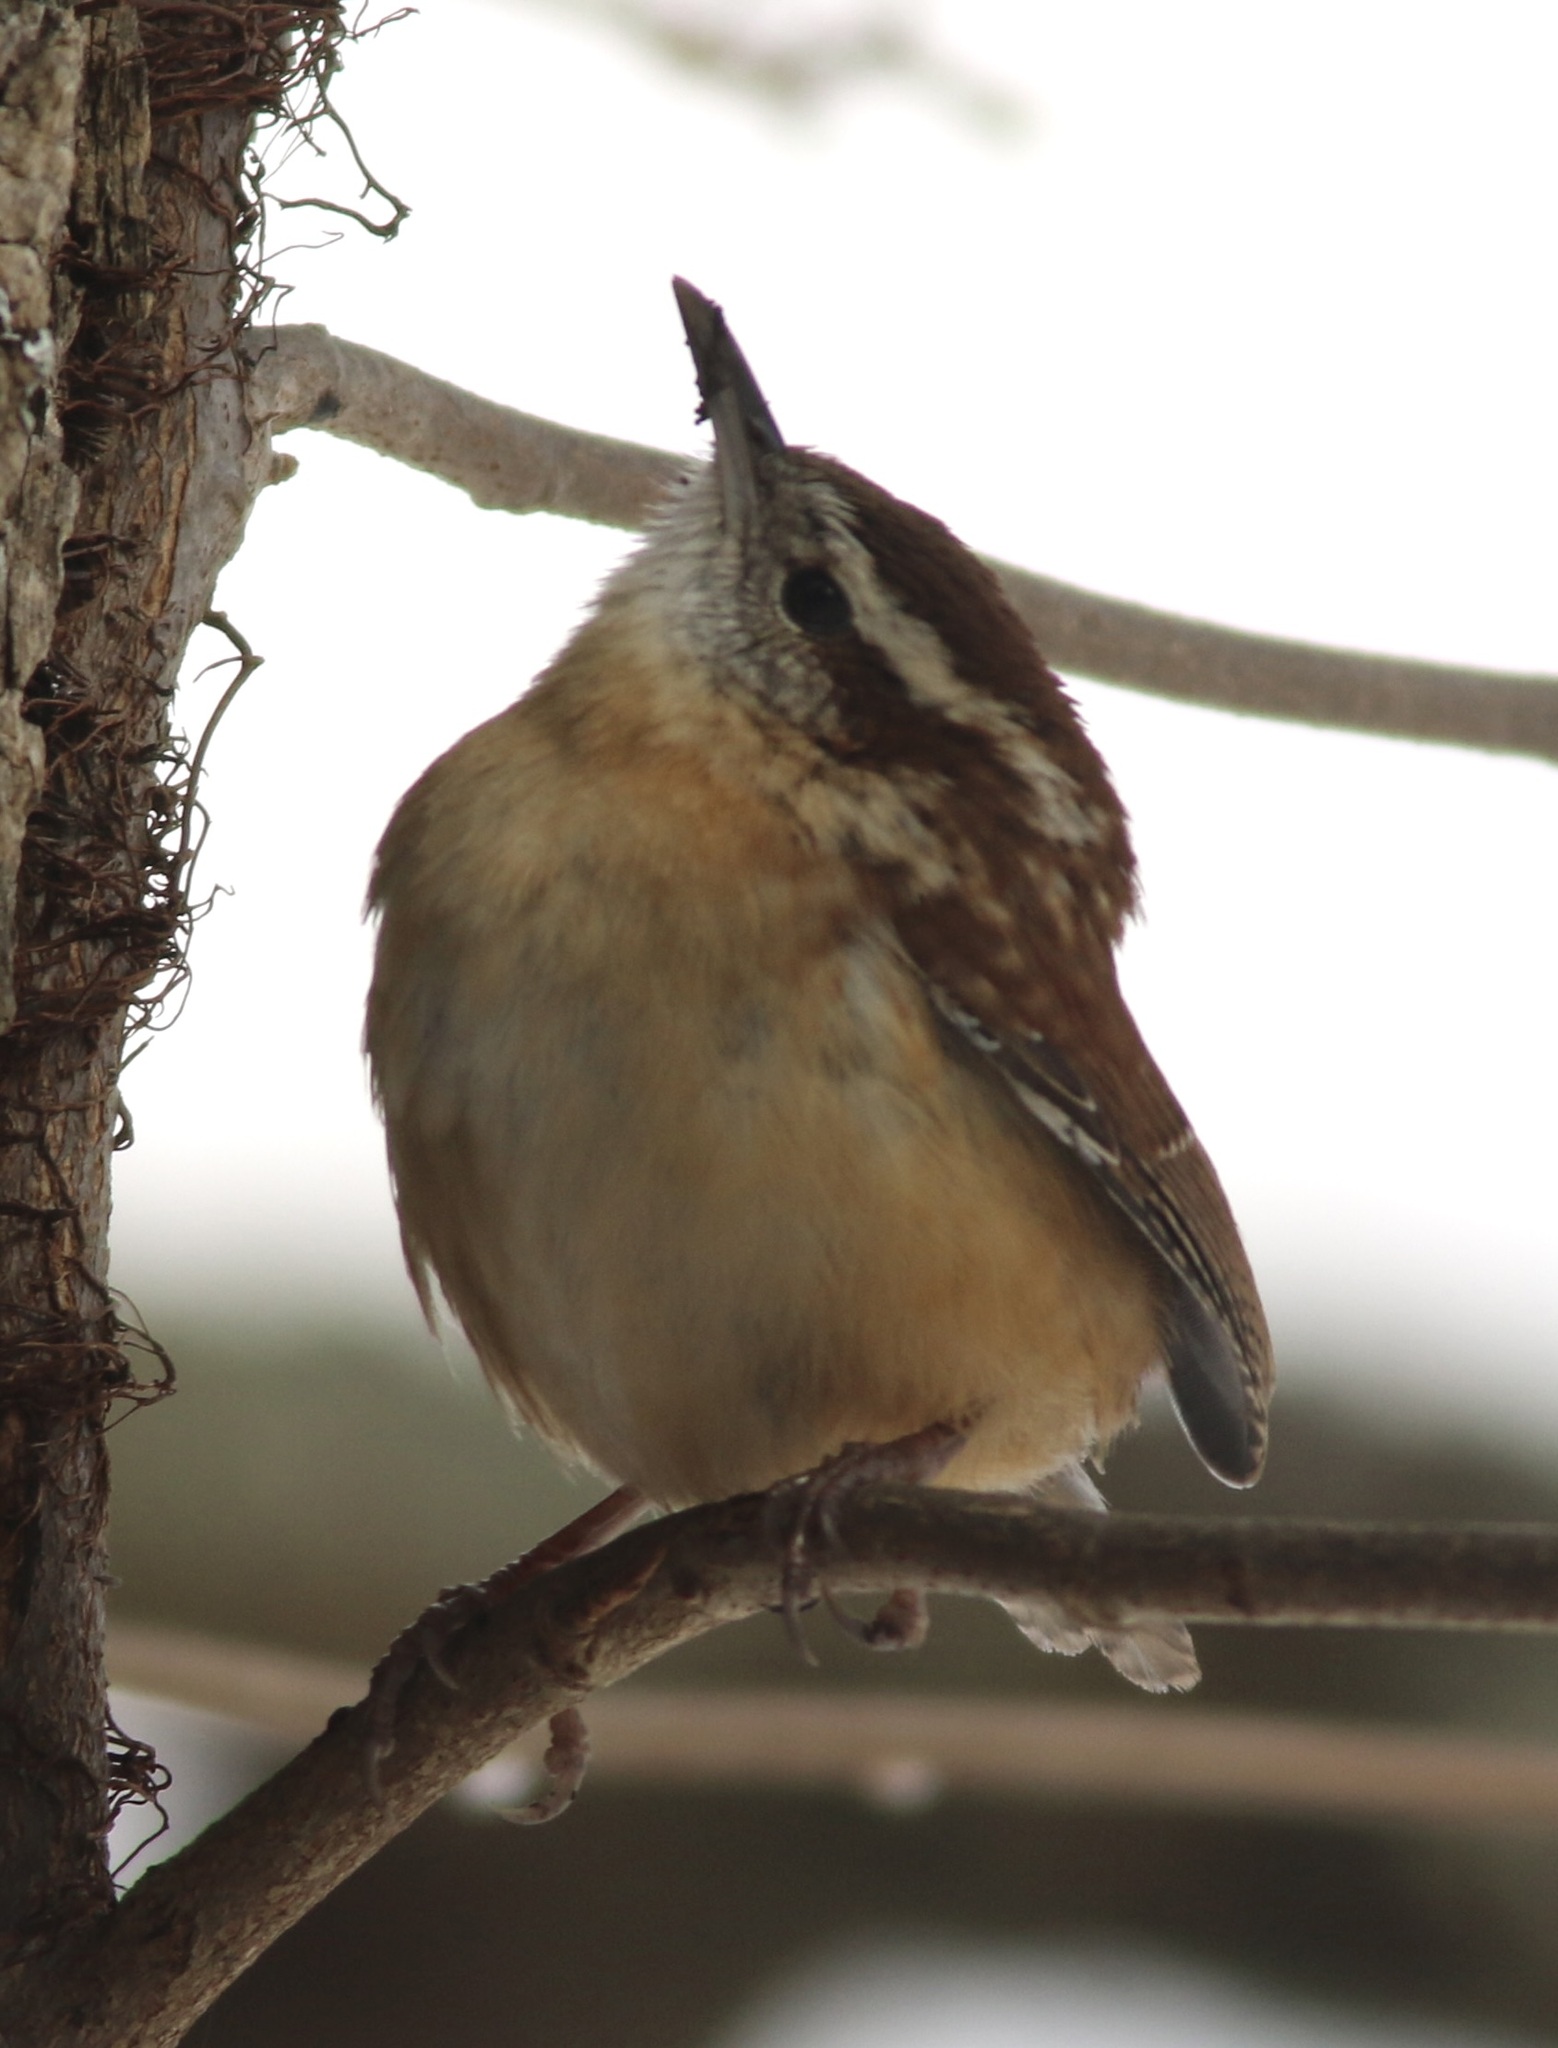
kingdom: Animalia
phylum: Chordata
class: Aves
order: Passeriformes
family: Troglodytidae
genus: Thryothorus
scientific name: Thryothorus ludovicianus
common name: Carolina wren
